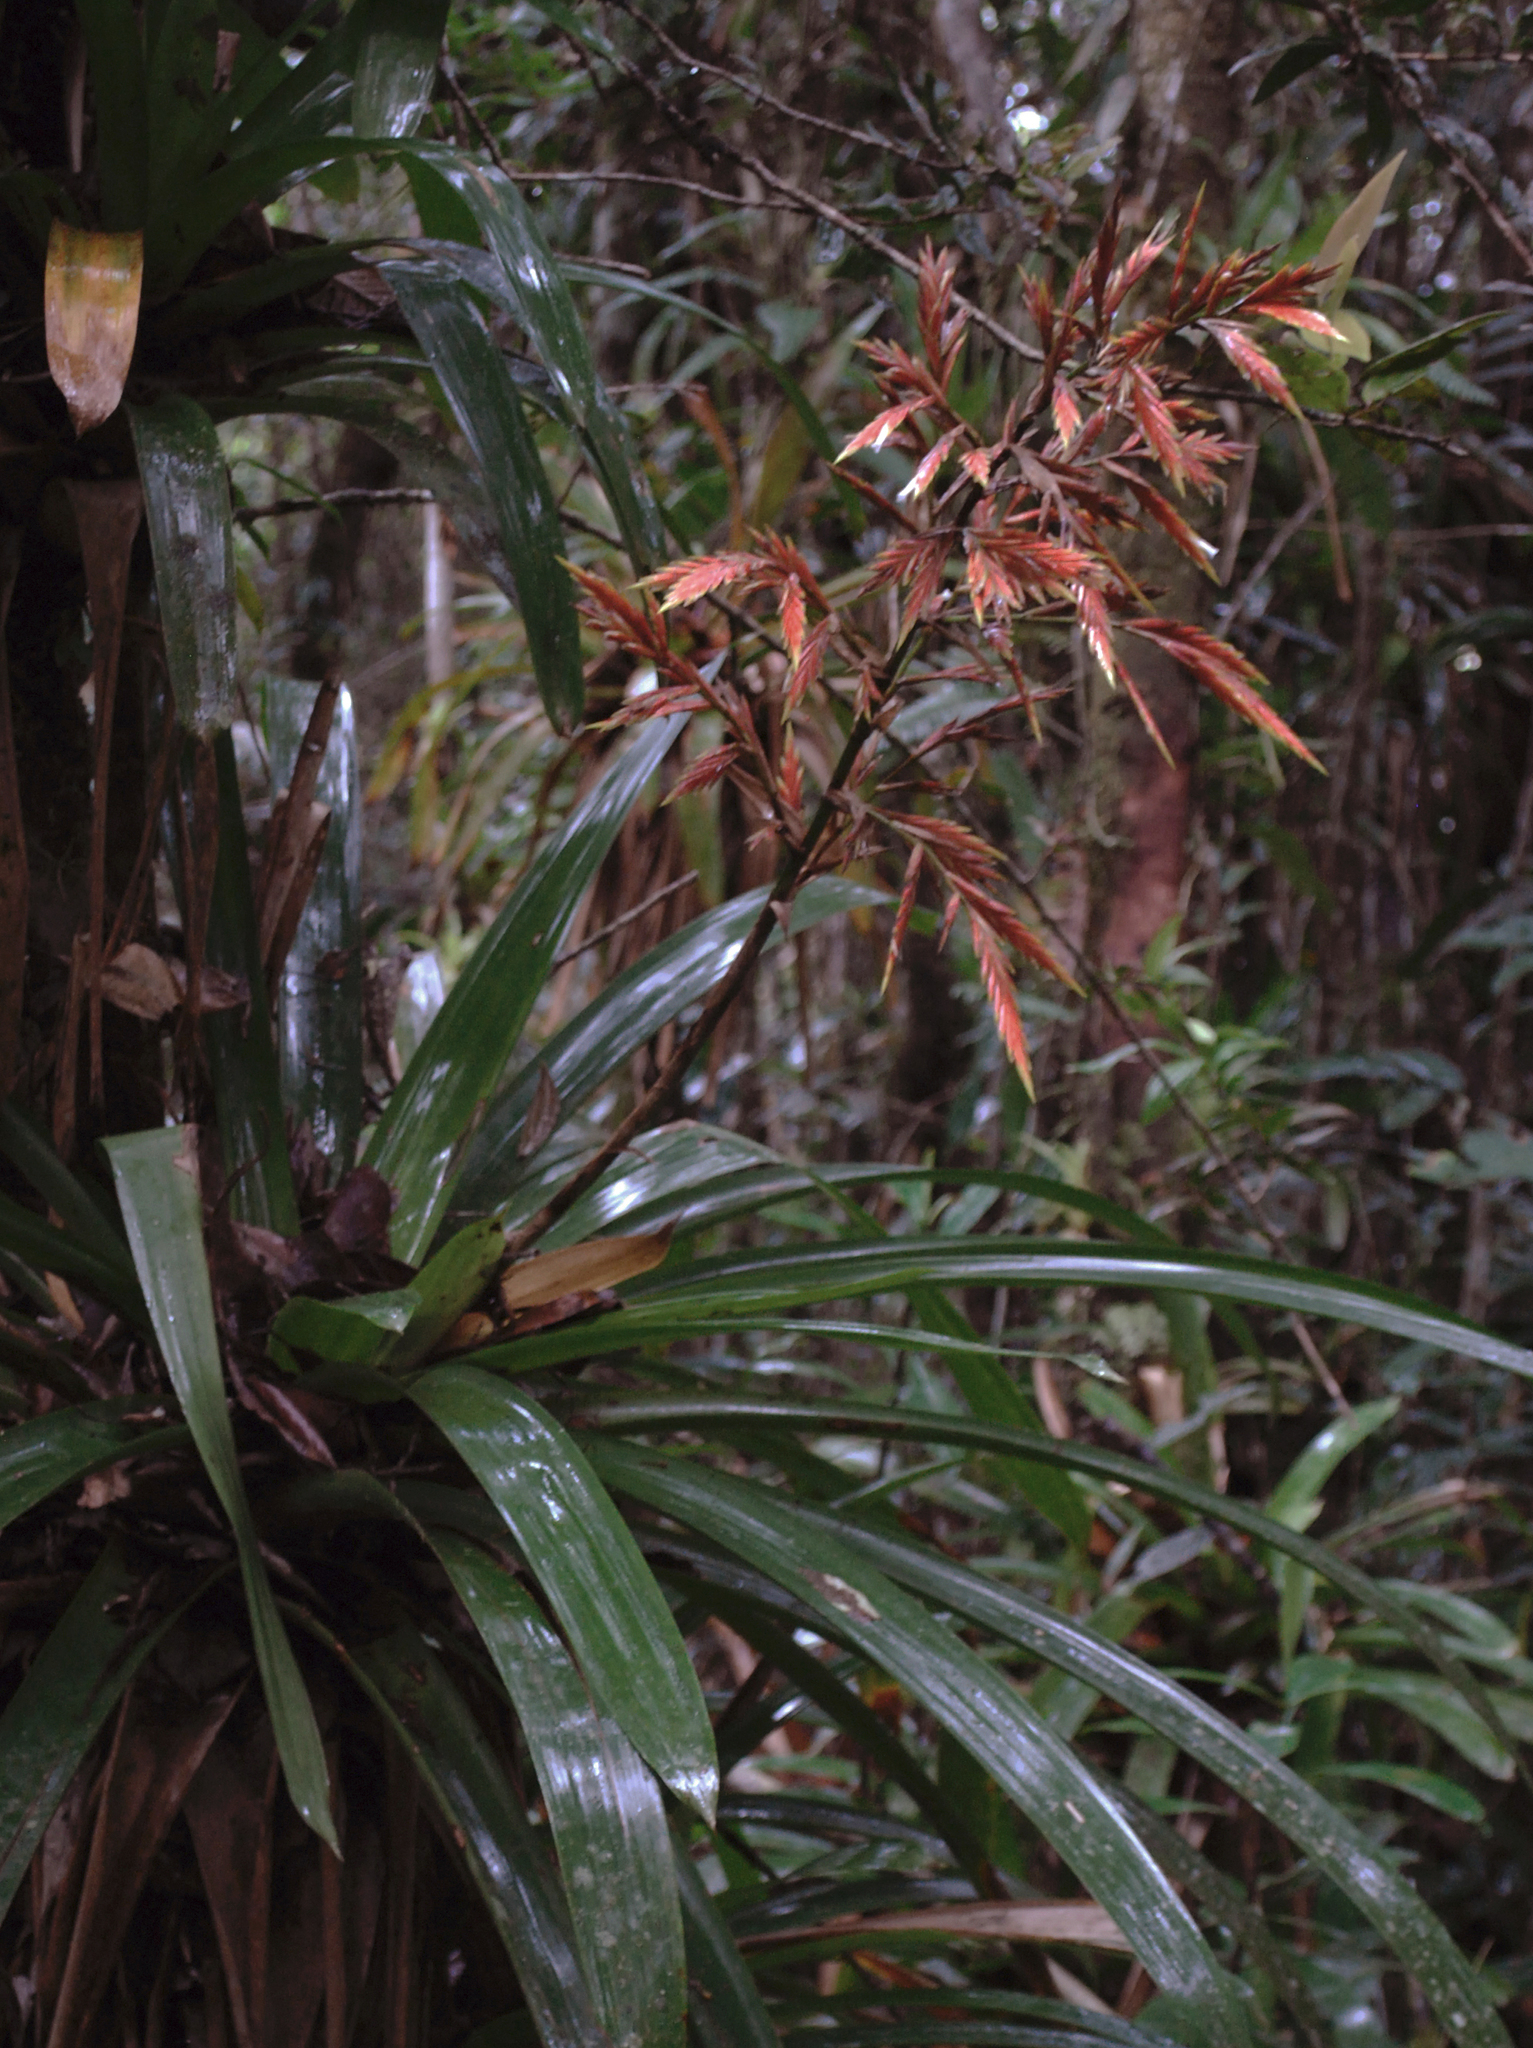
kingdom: Plantae
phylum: Tracheophyta
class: Liliopsida
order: Poales
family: Bromeliaceae
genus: Vriesea
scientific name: Vriesea elata
